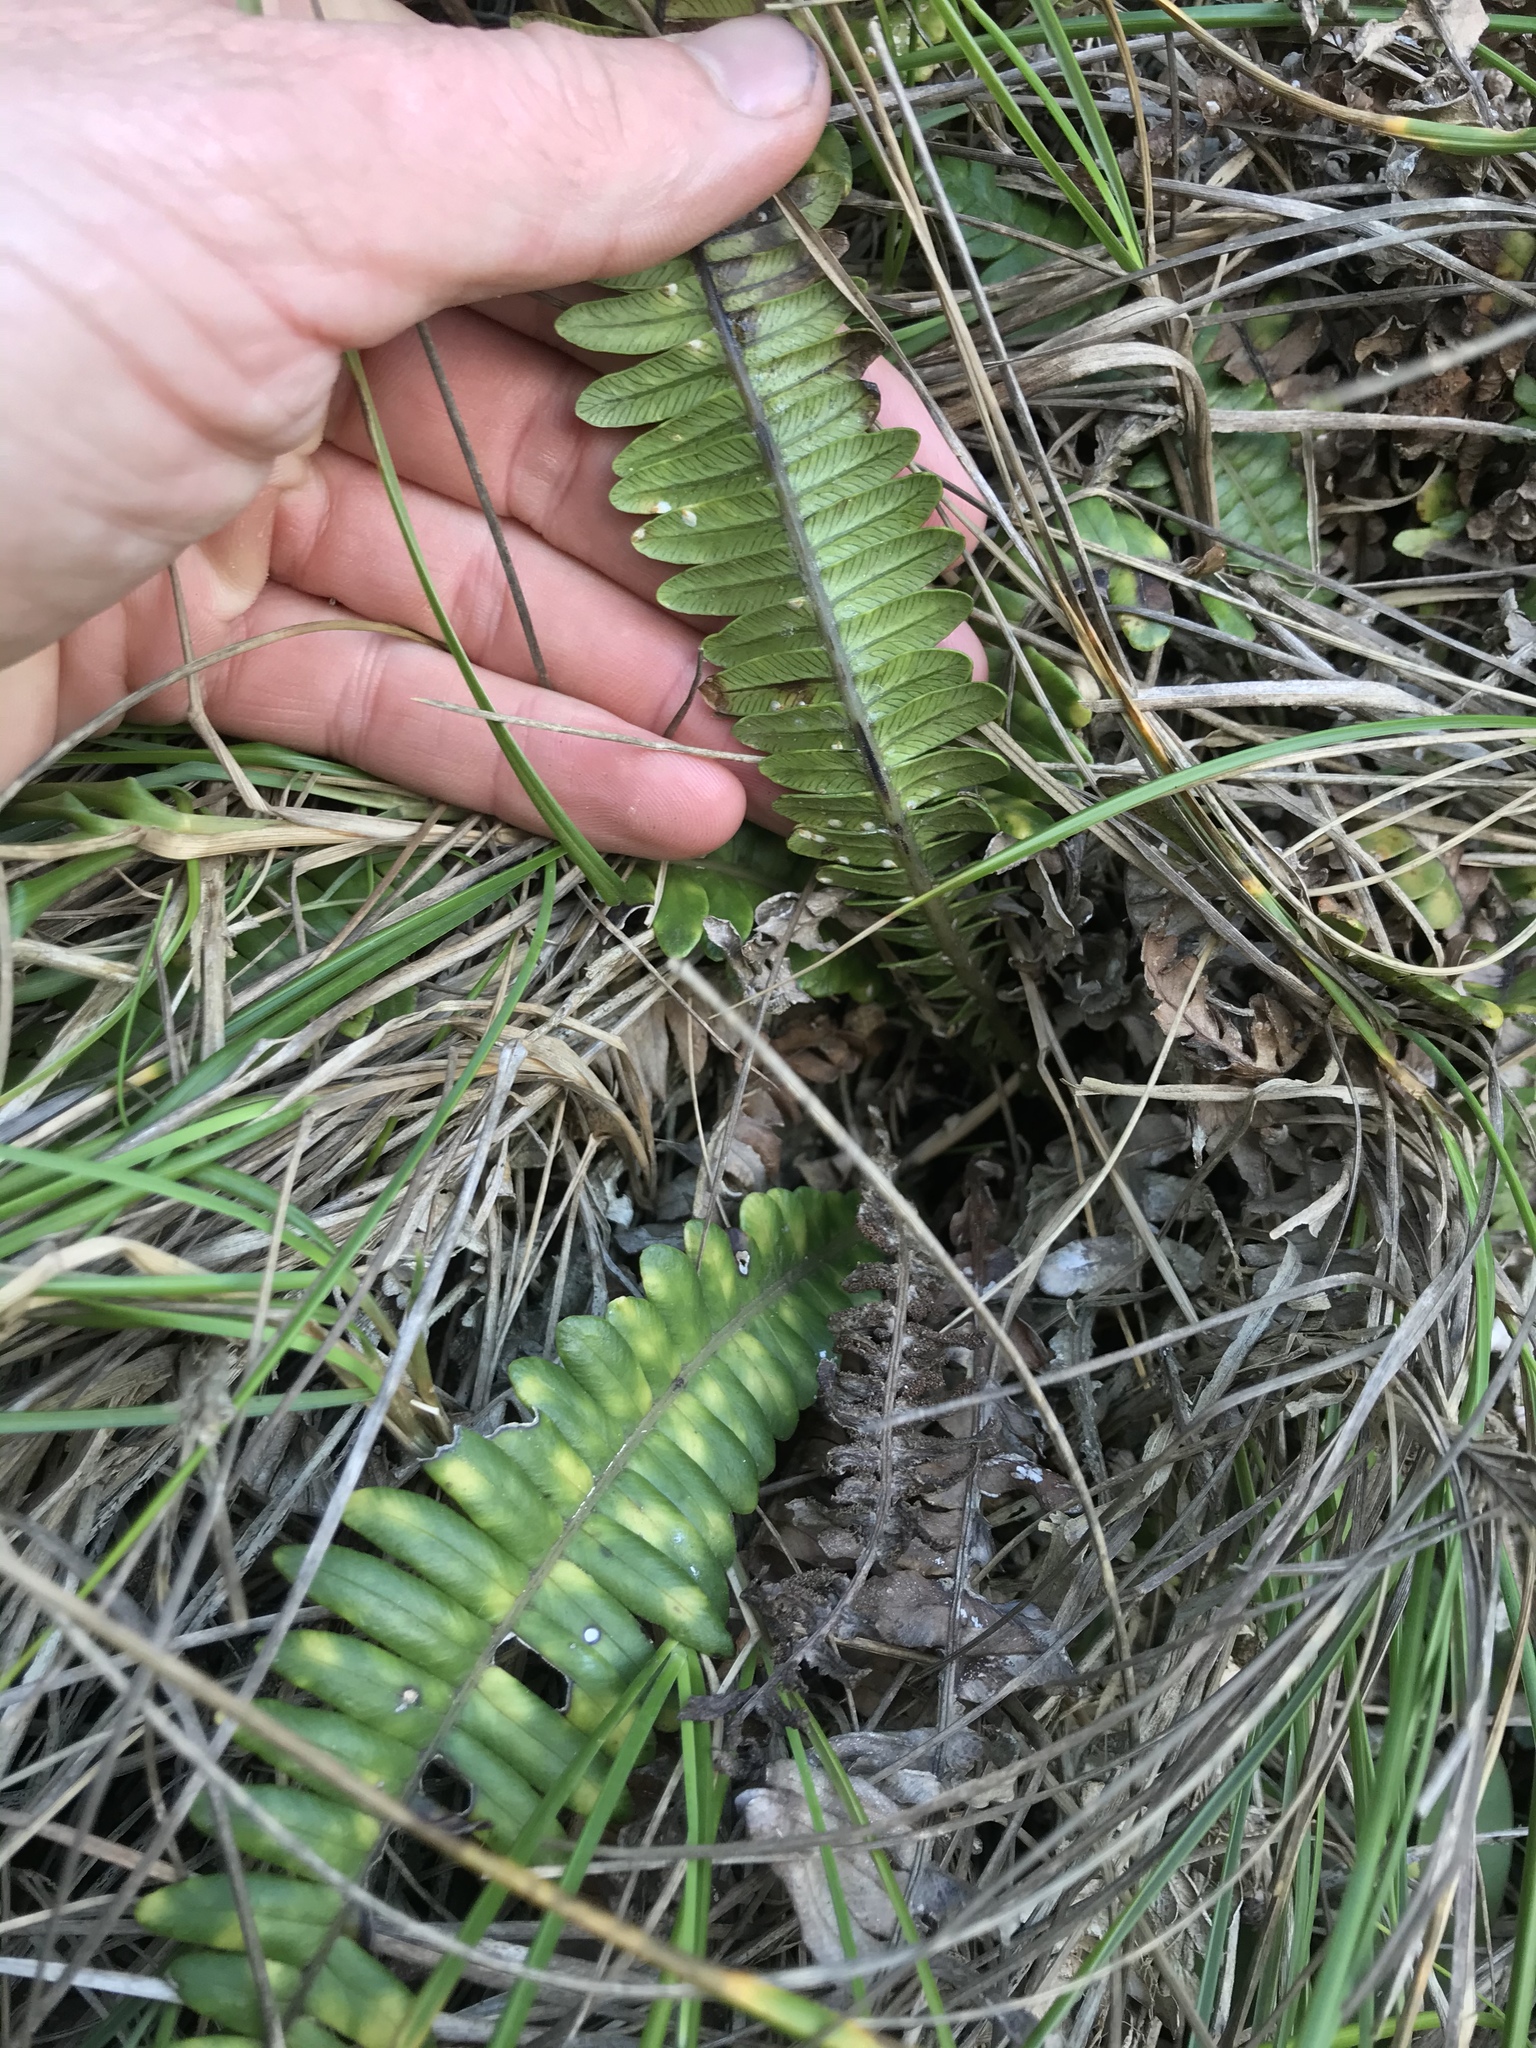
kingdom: Plantae
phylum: Tracheophyta
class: Polypodiopsida
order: Polypodiales
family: Blechnaceae
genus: Austroblechnum
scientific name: Austroblechnum durum
